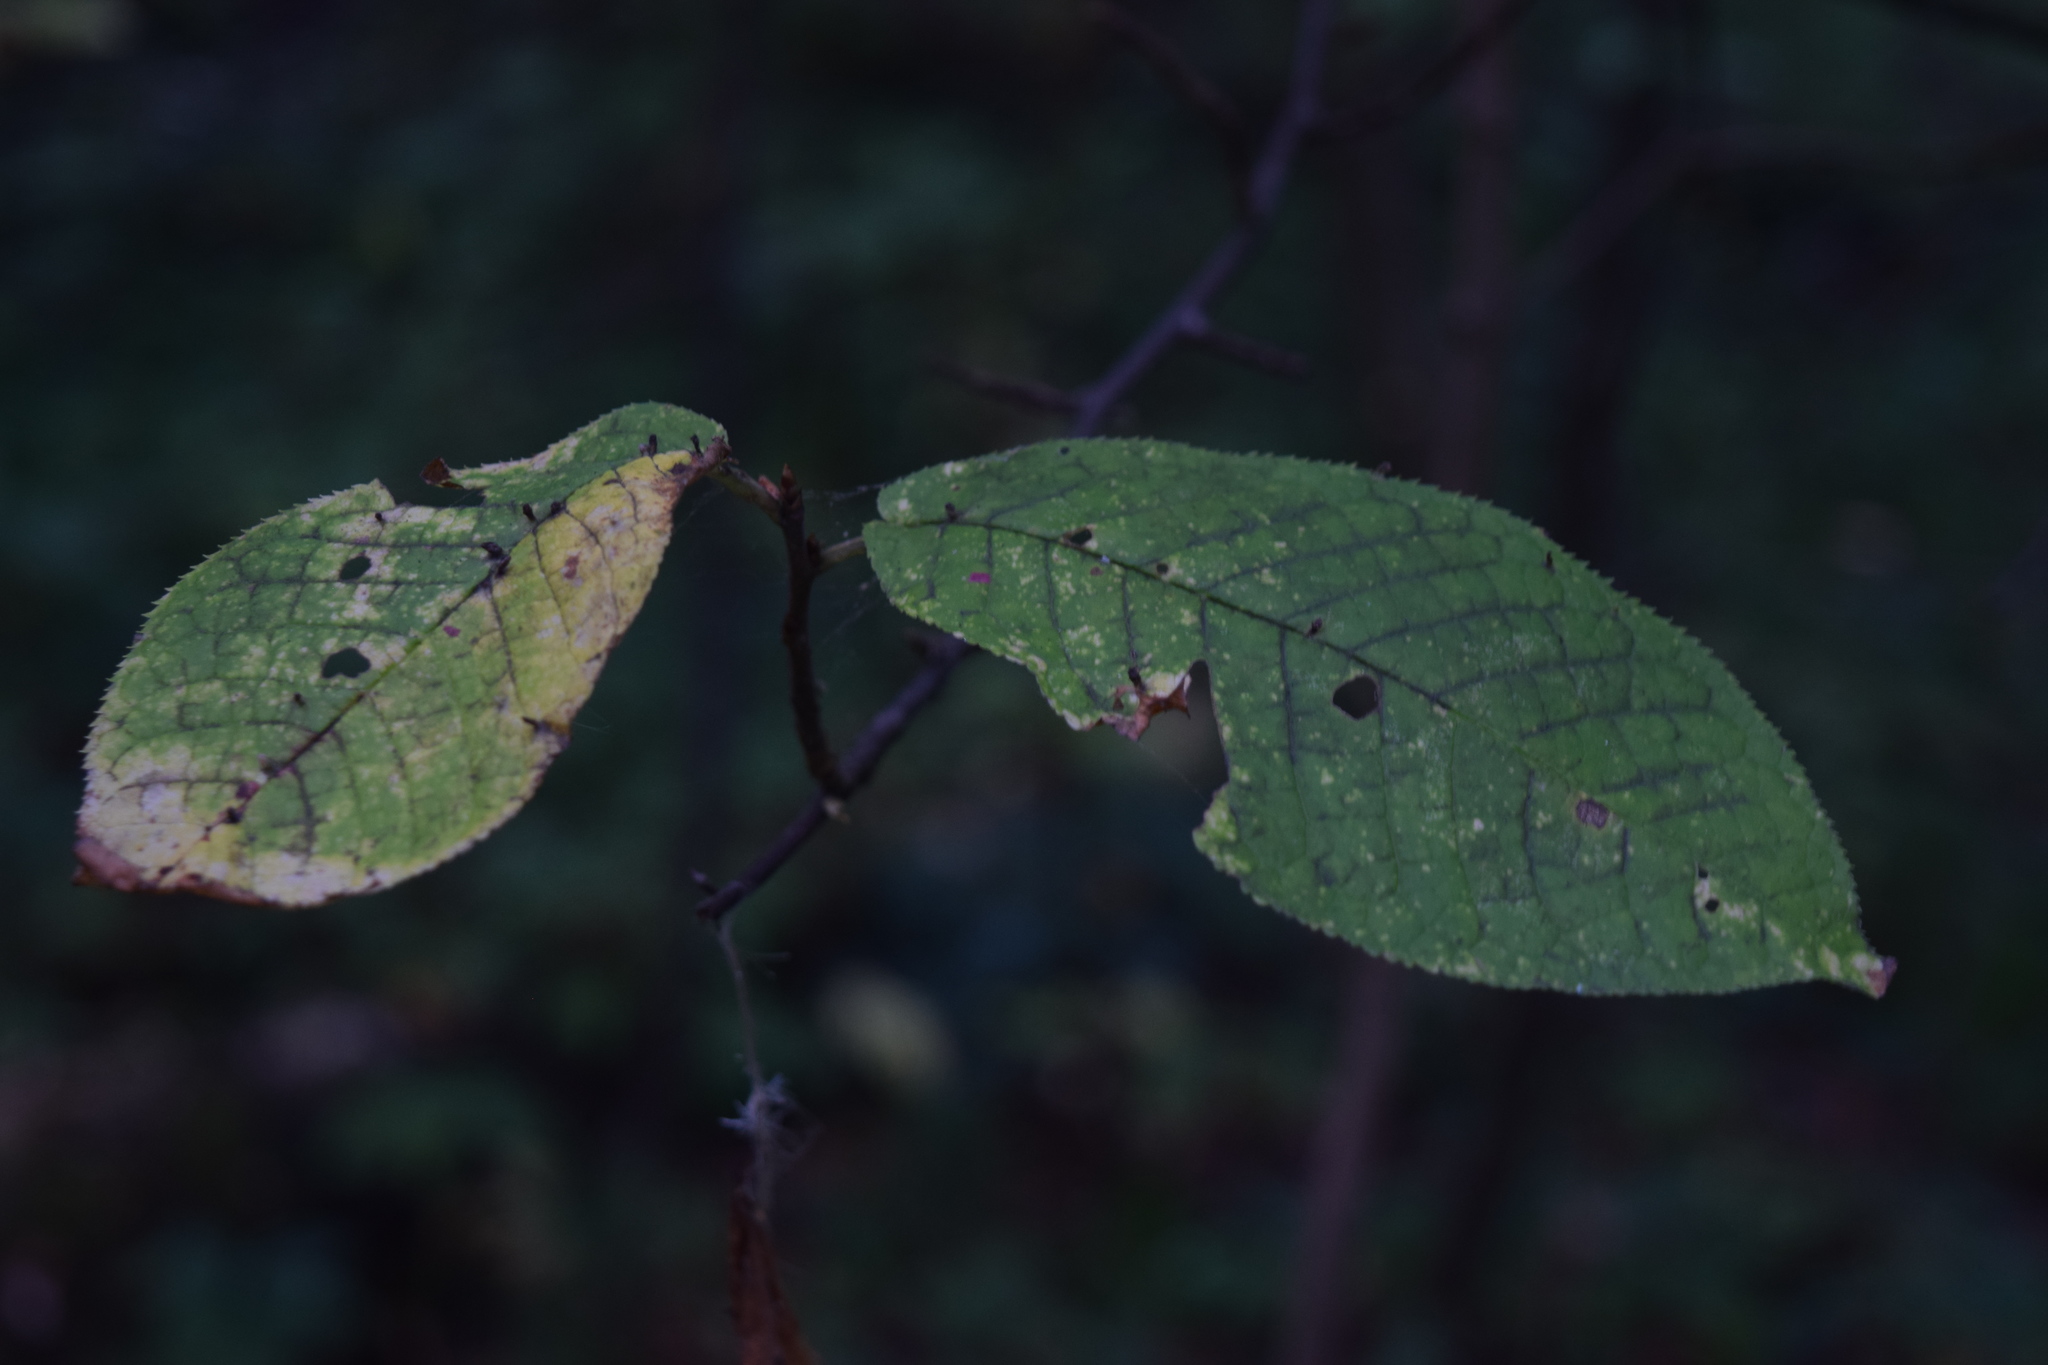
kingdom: Plantae
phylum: Tracheophyta
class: Magnoliopsida
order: Rosales
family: Rosaceae
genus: Prunus
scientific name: Prunus padus
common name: Bird cherry
